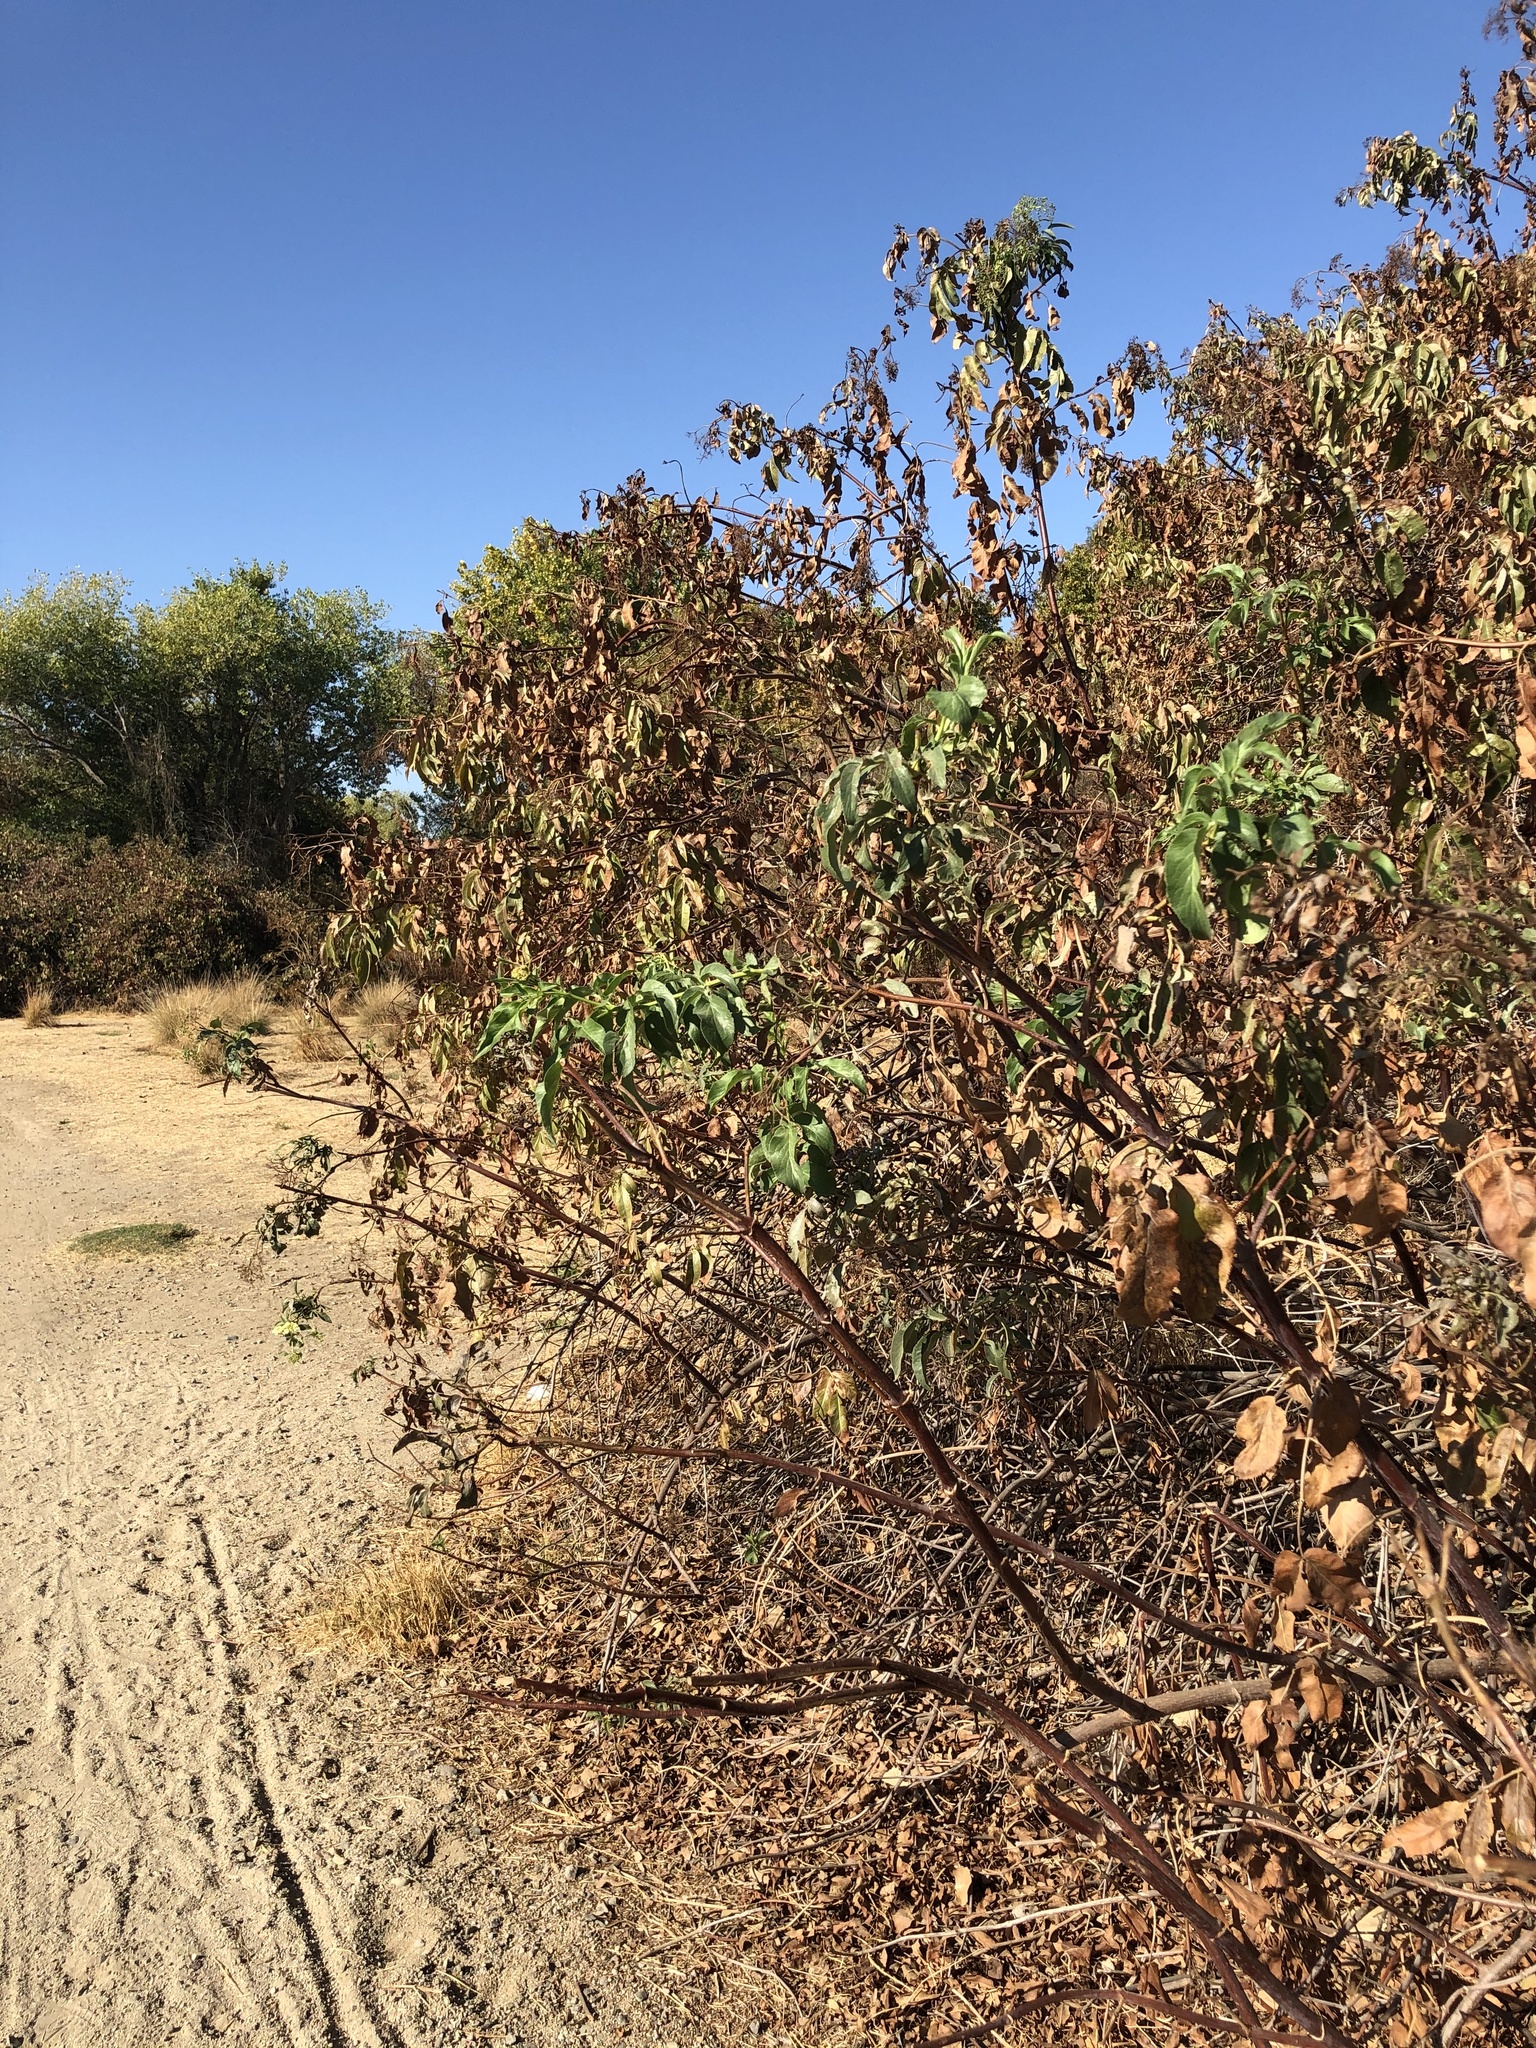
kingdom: Plantae
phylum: Tracheophyta
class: Magnoliopsida
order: Dipsacales
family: Viburnaceae
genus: Sambucus
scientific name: Sambucus cerulea
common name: Blue elder
